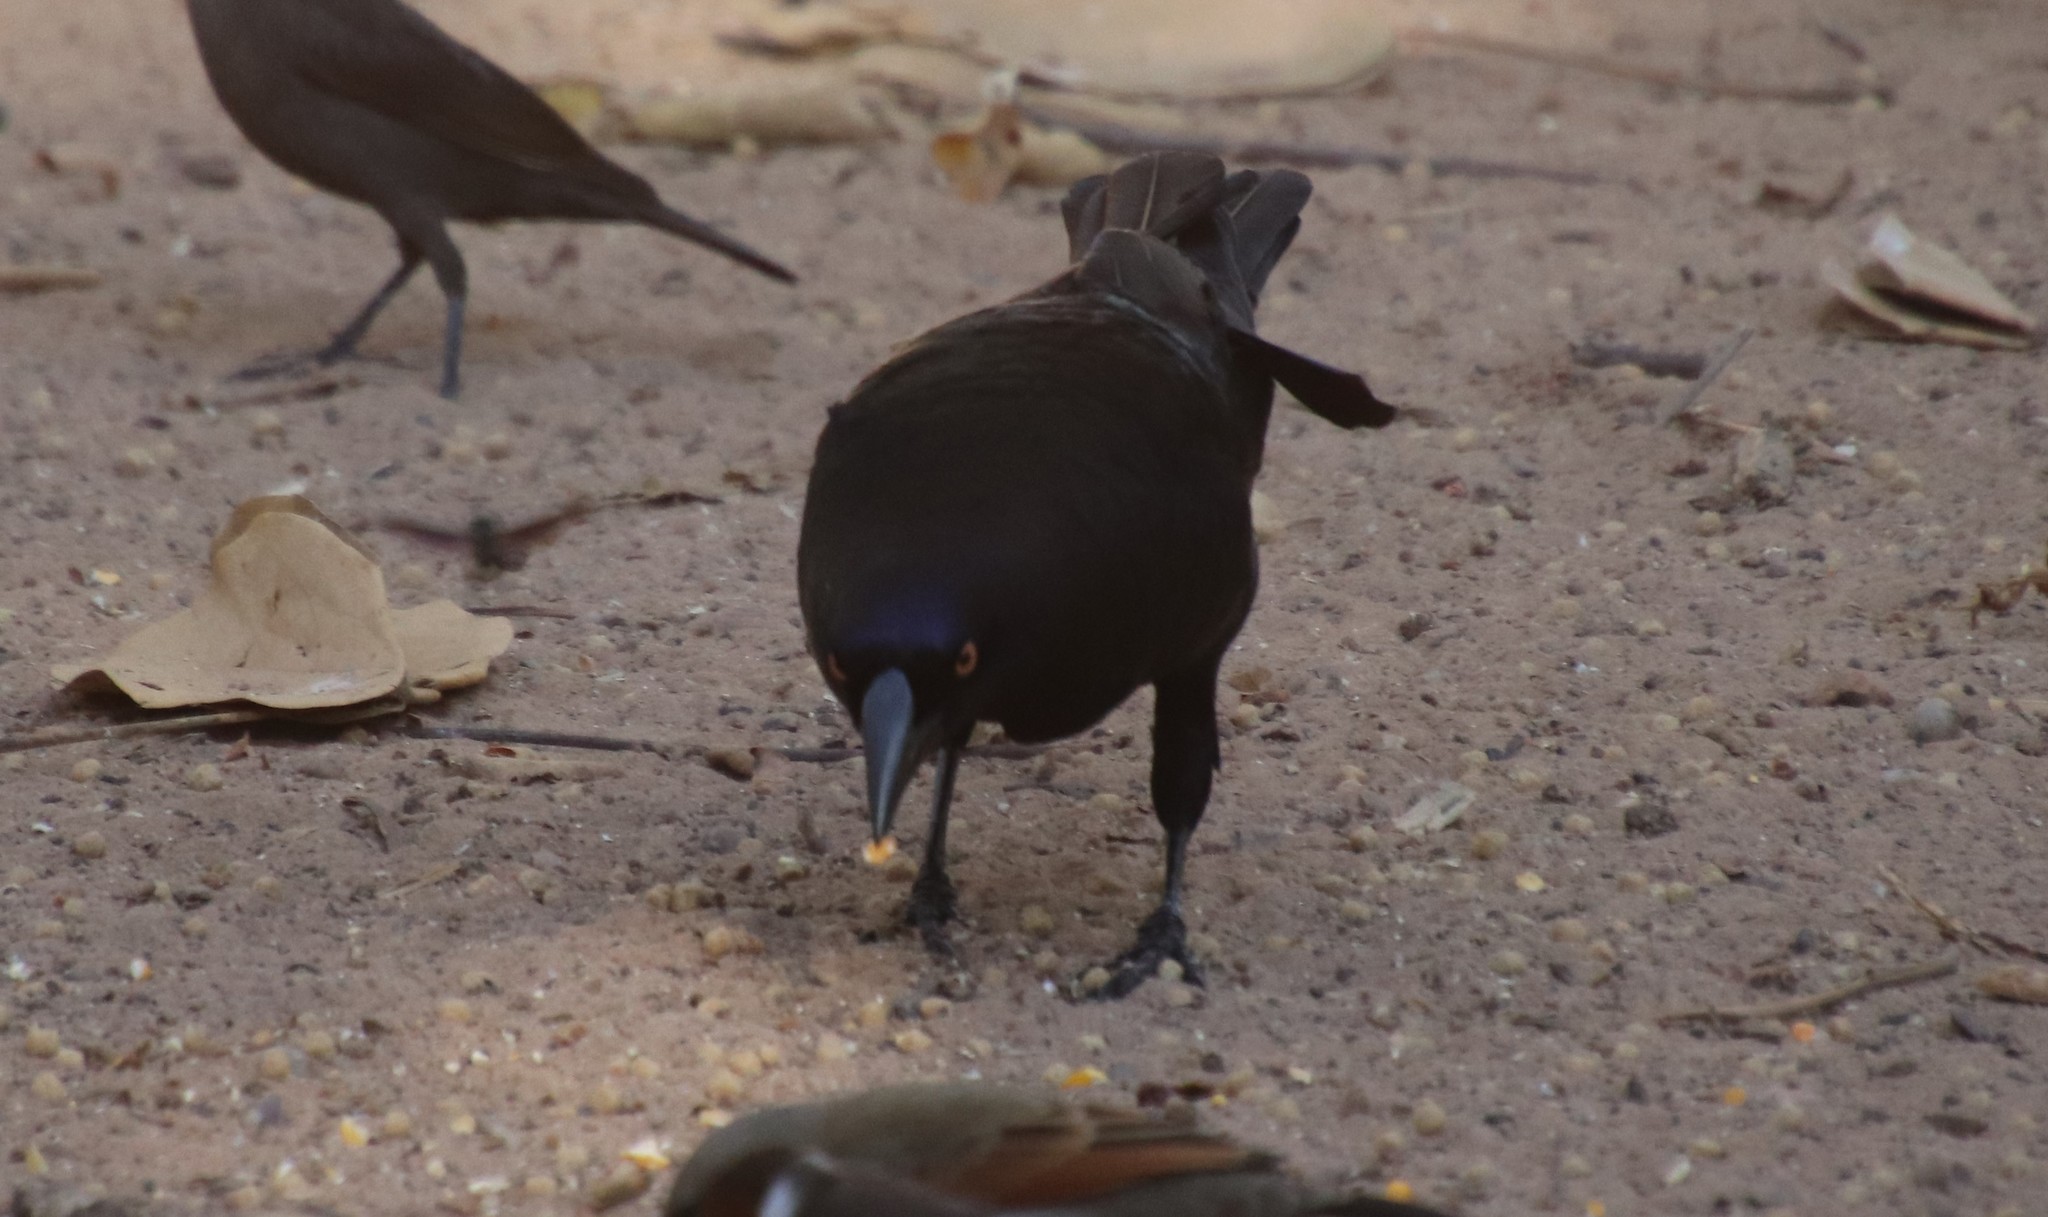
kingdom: Animalia
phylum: Chordata
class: Aves
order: Passeriformes
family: Icteridae
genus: Molothrus
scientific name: Molothrus oryzivorus
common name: Giant cowbird
